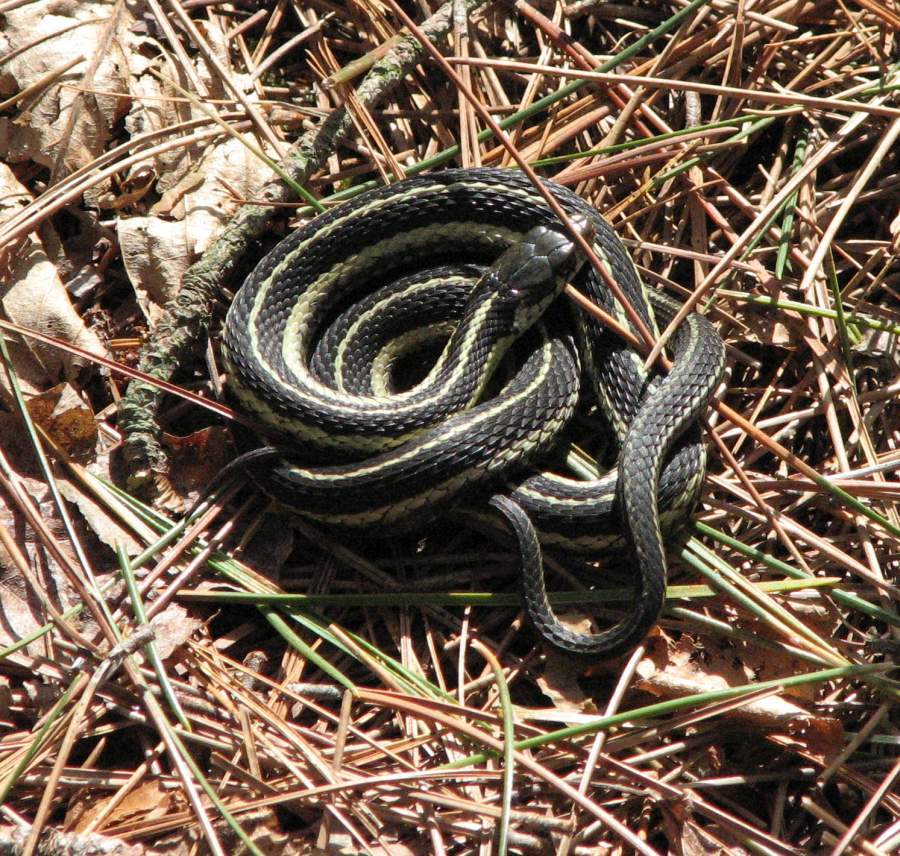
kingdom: Animalia
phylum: Chordata
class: Squamata
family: Colubridae
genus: Thamnophis
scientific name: Thamnophis sirtalis
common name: Common garter snake
